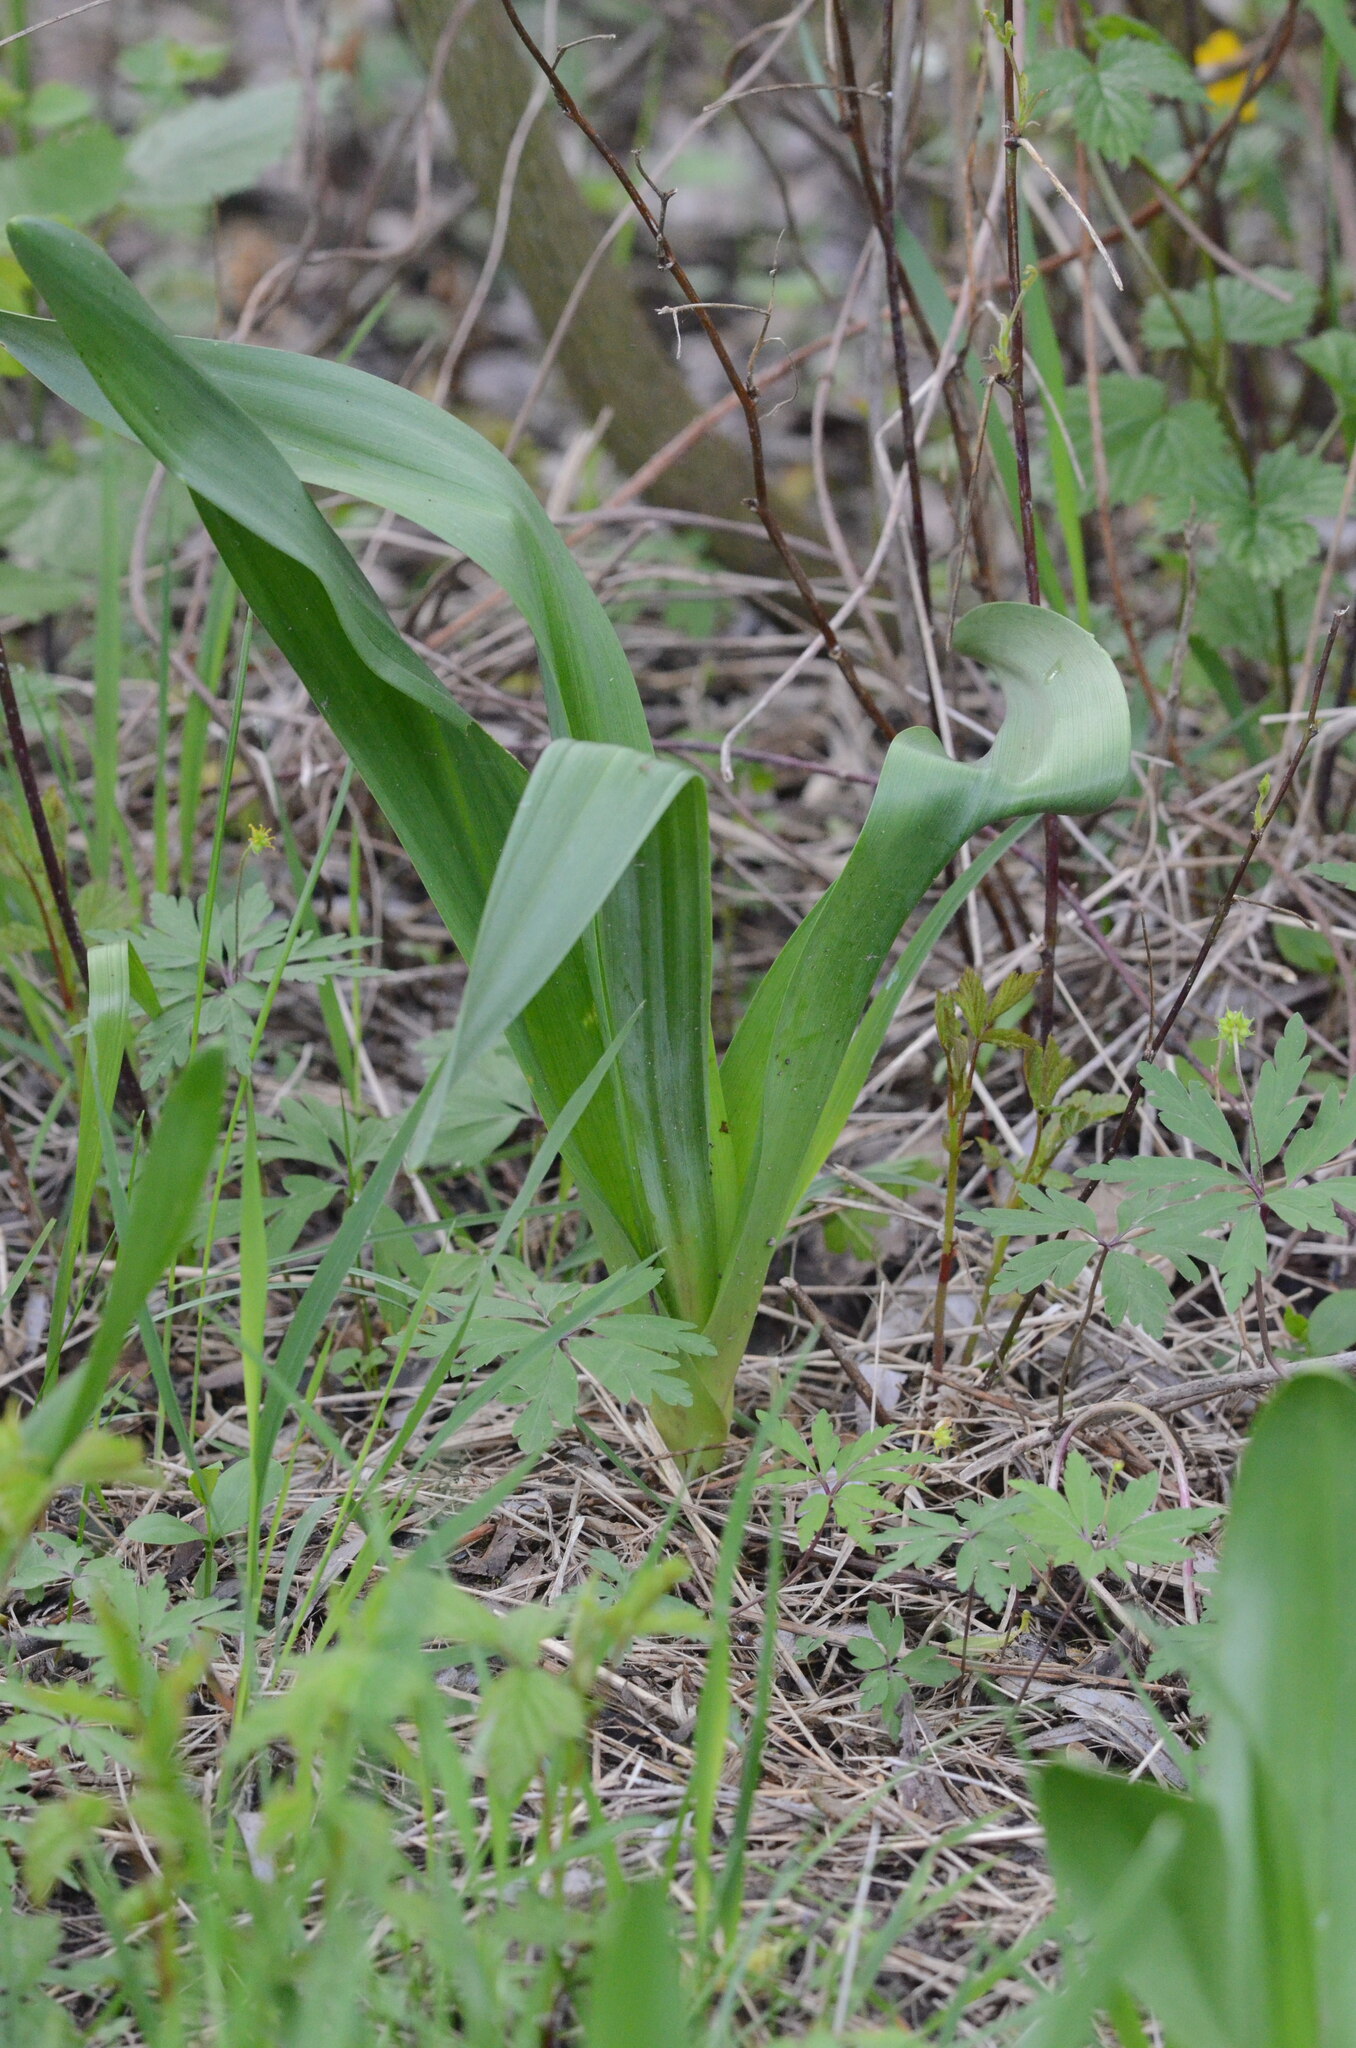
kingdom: Plantae
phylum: Tracheophyta
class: Liliopsida
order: Liliales
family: Colchicaceae
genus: Colchicum
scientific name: Colchicum autumnale
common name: Autumn crocus
